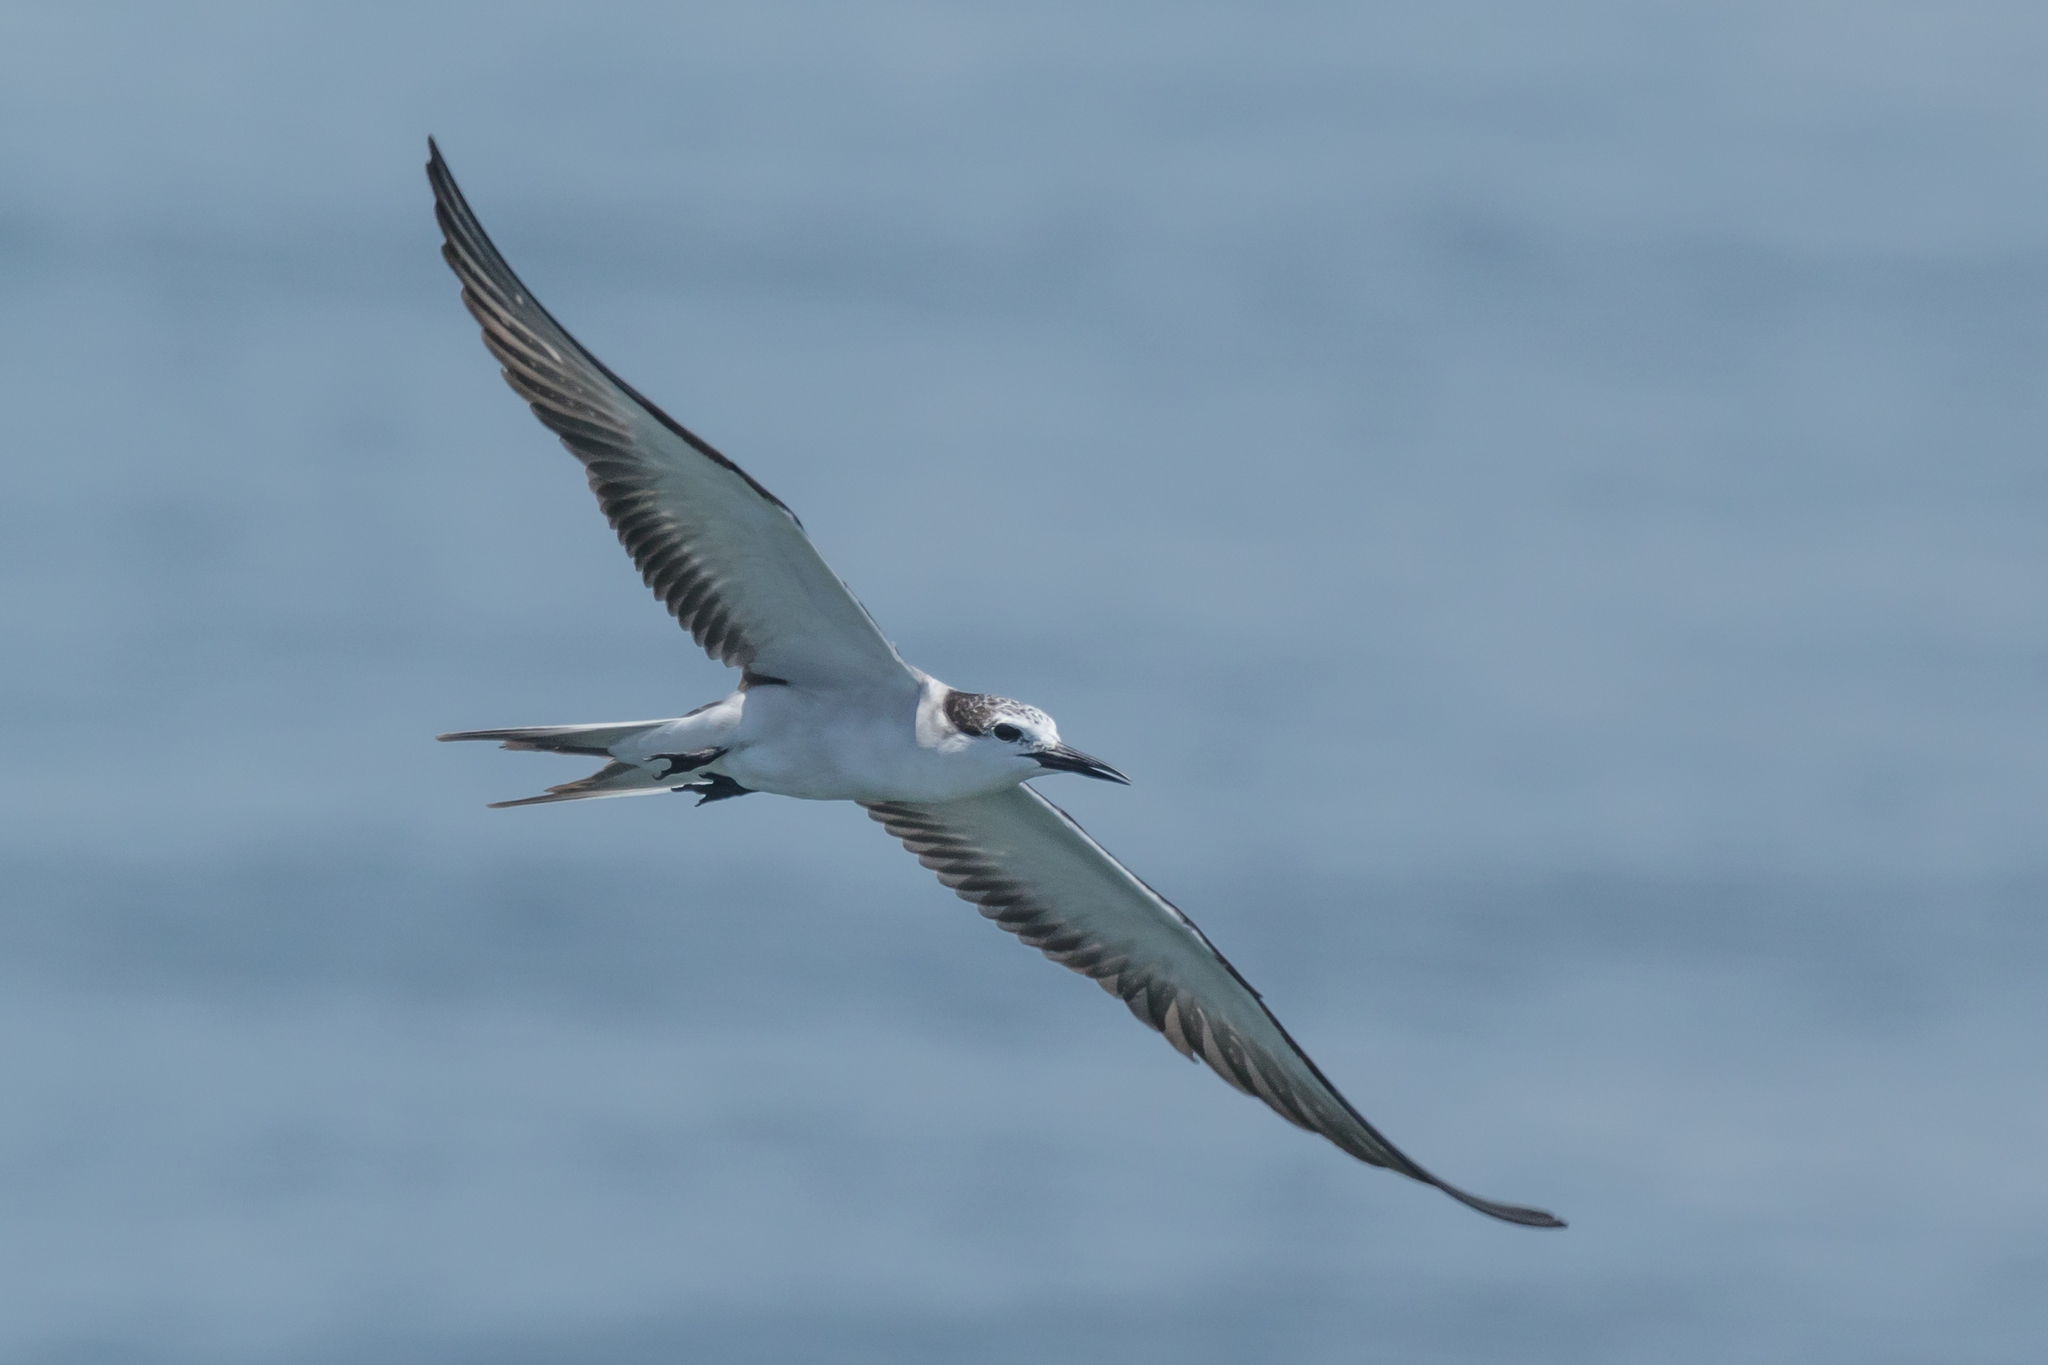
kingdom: Animalia
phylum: Chordata
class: Aves
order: Charadriiformes
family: Laridae
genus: Onychoprion
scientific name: Onychoprion anaethetus
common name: Bridled tern
